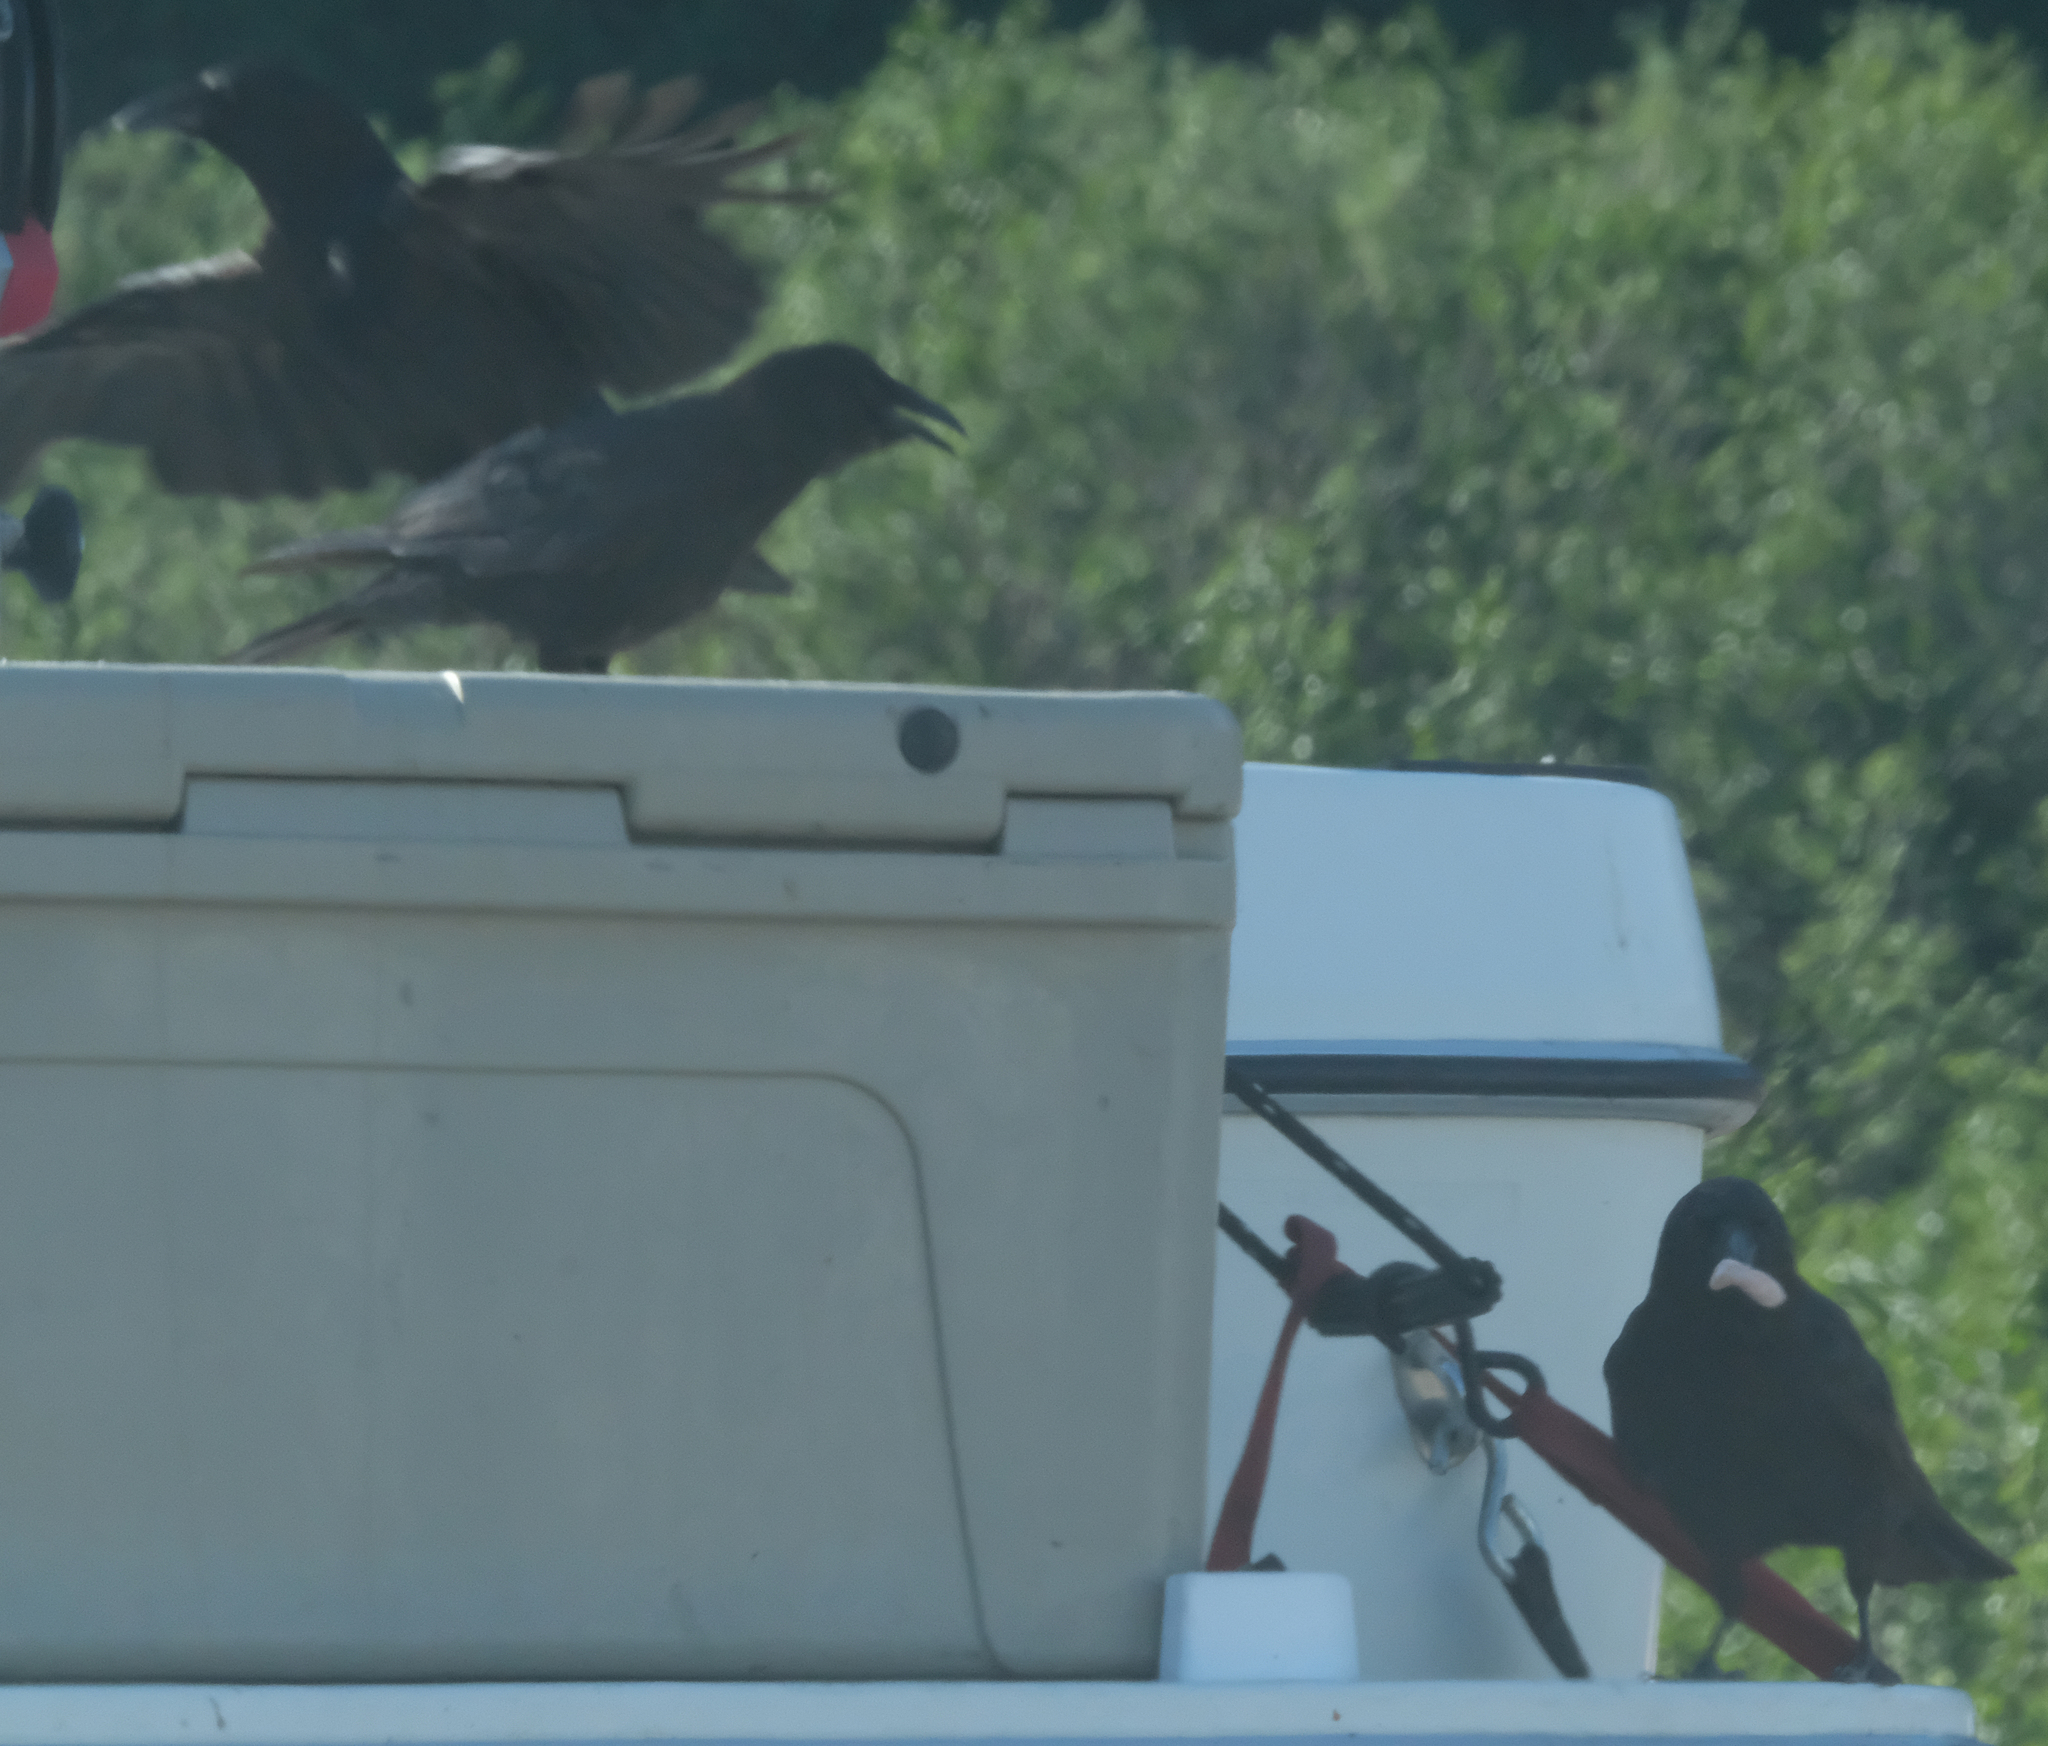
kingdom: Animalia
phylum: Chordata
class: Aves
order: Passeriformes
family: Corvidae
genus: Corvus
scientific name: Corvus corax
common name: Common raven
